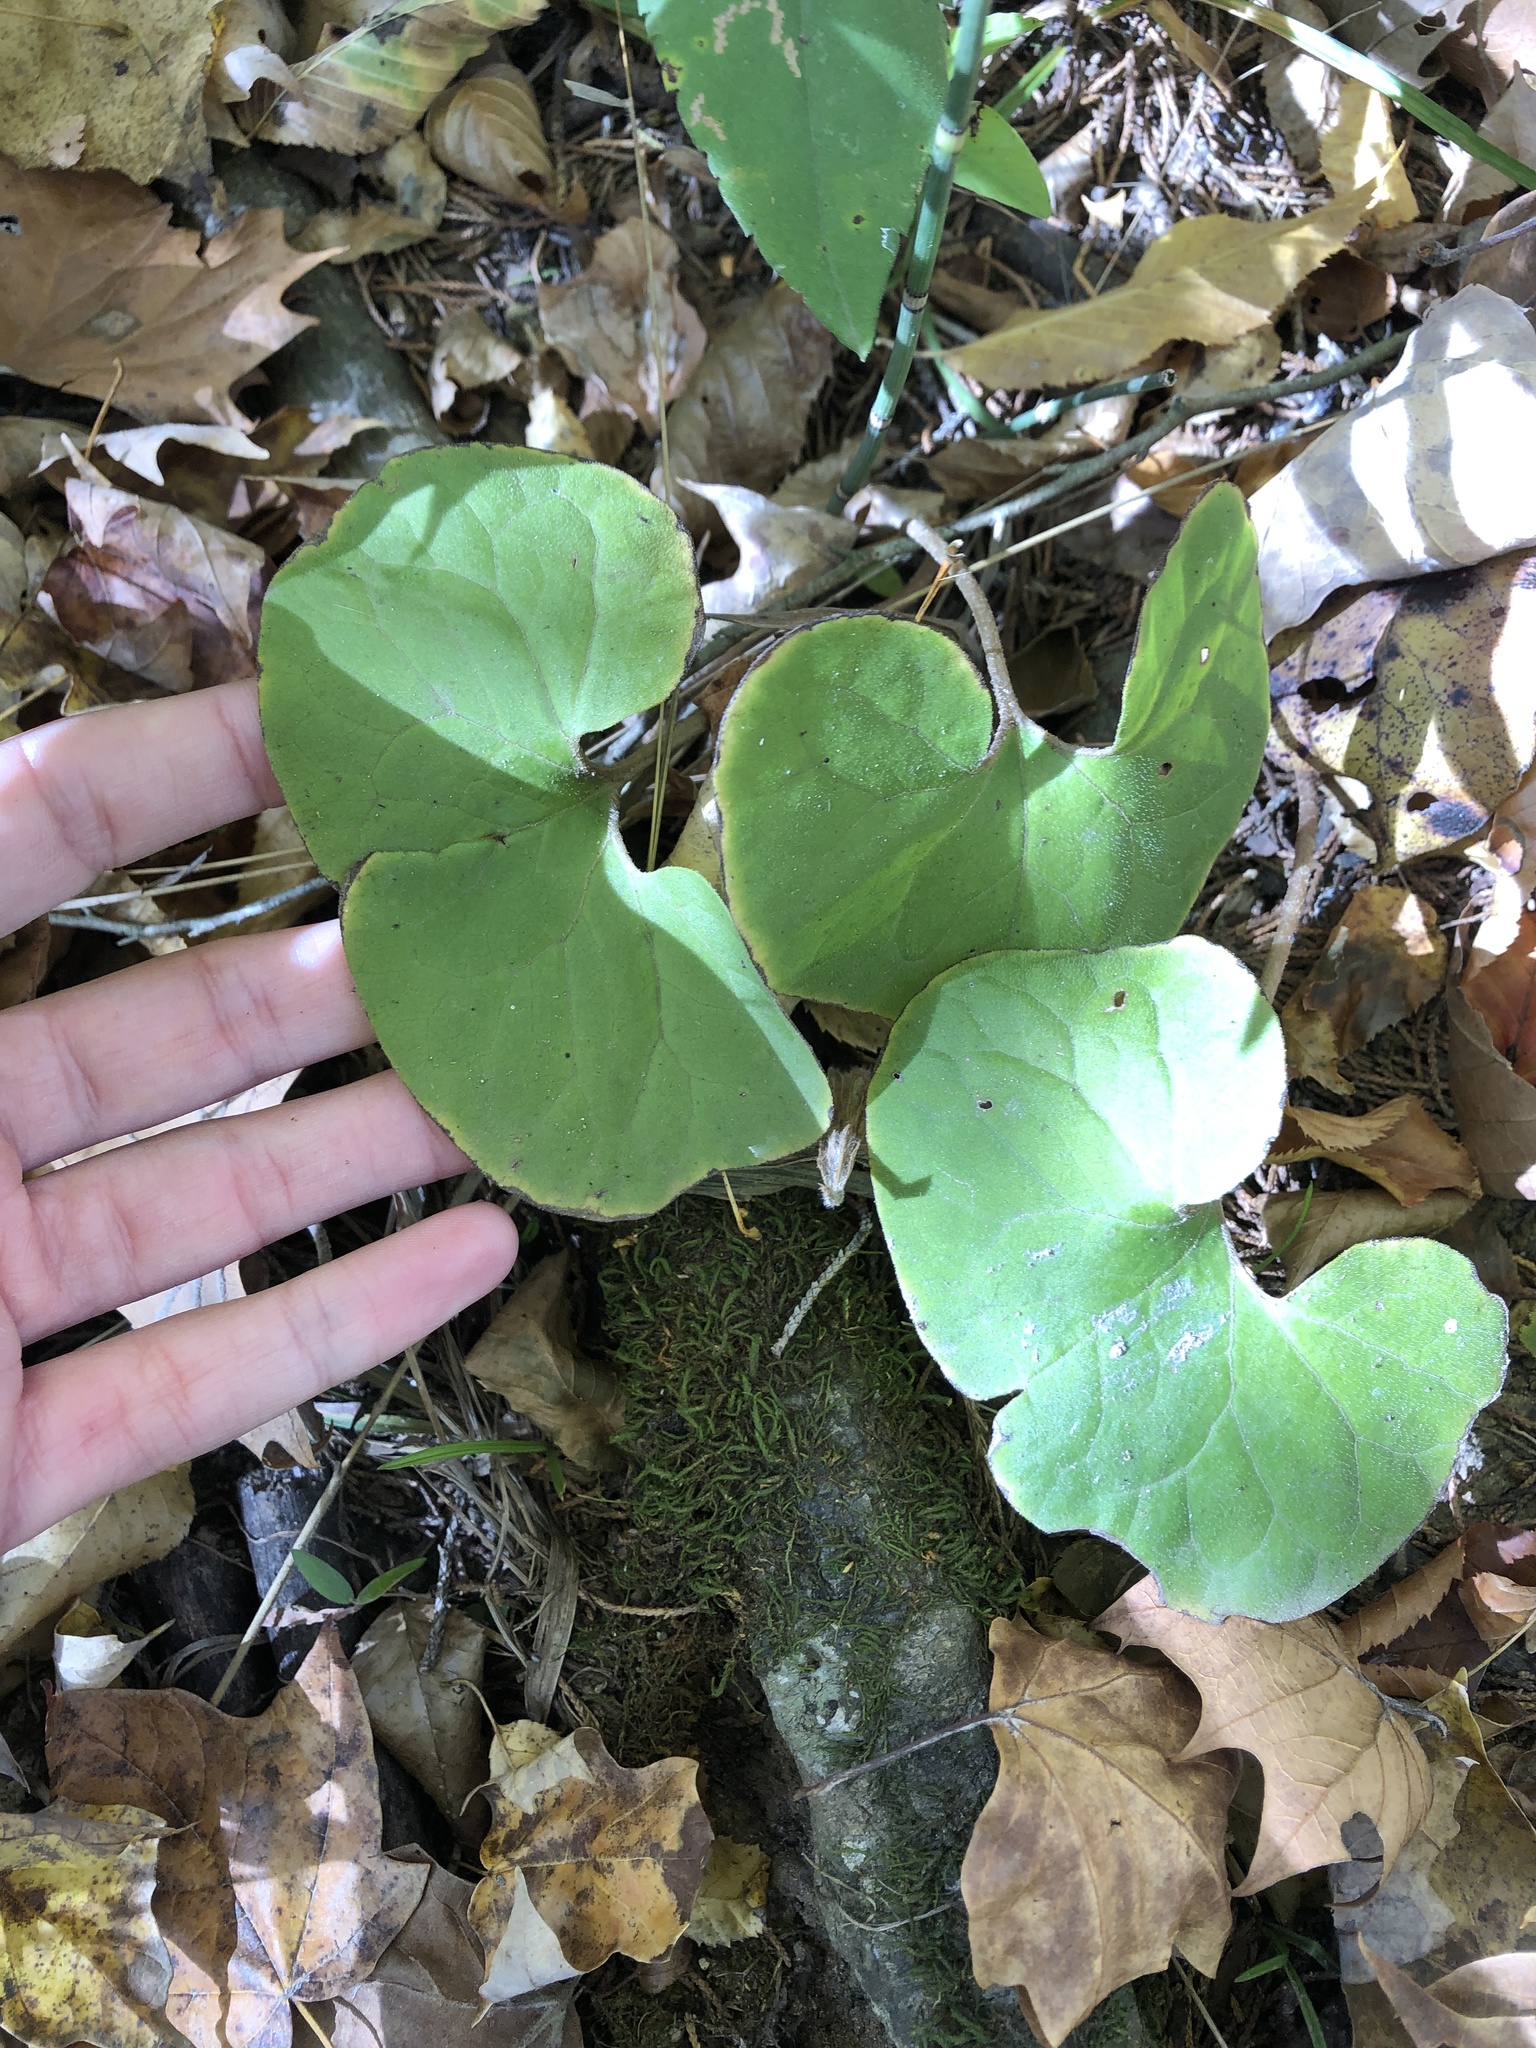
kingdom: Plantae
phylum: Tracheophyta
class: Magnoliopsida
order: Piperales
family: Aristolochiaceae
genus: Asarum
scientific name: Asarum canadense
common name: Wild ginger
